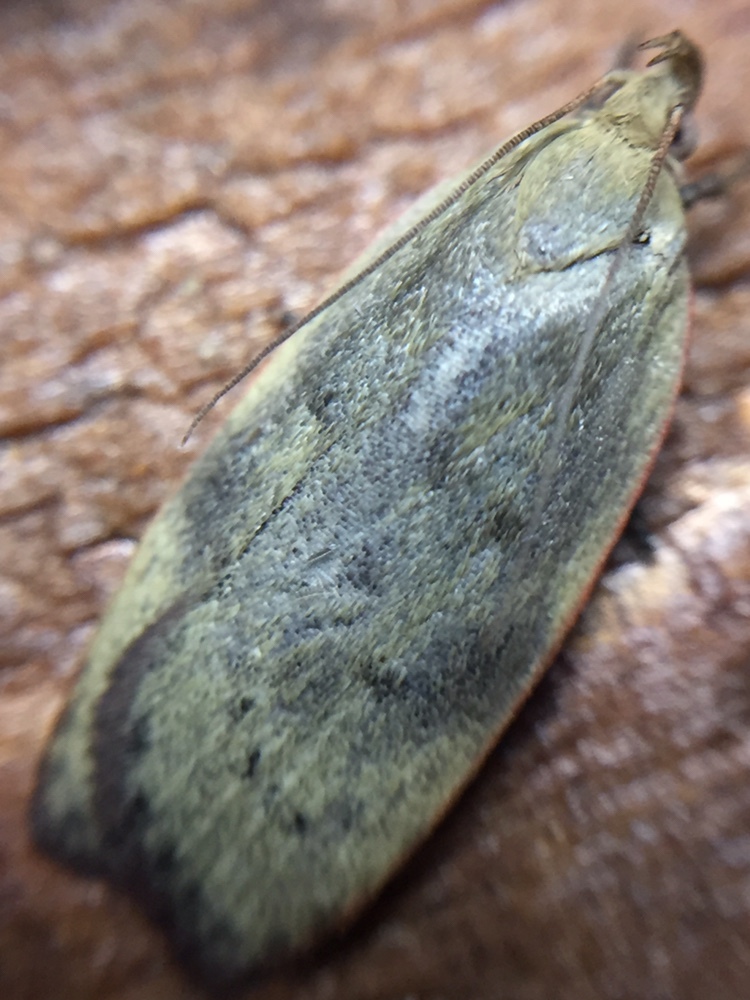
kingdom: Animalia
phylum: Arthropoda
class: Insecta
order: Lepidoptera
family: Depressariidae
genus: Phaeosaces
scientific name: Phaeosaces coarctatella
